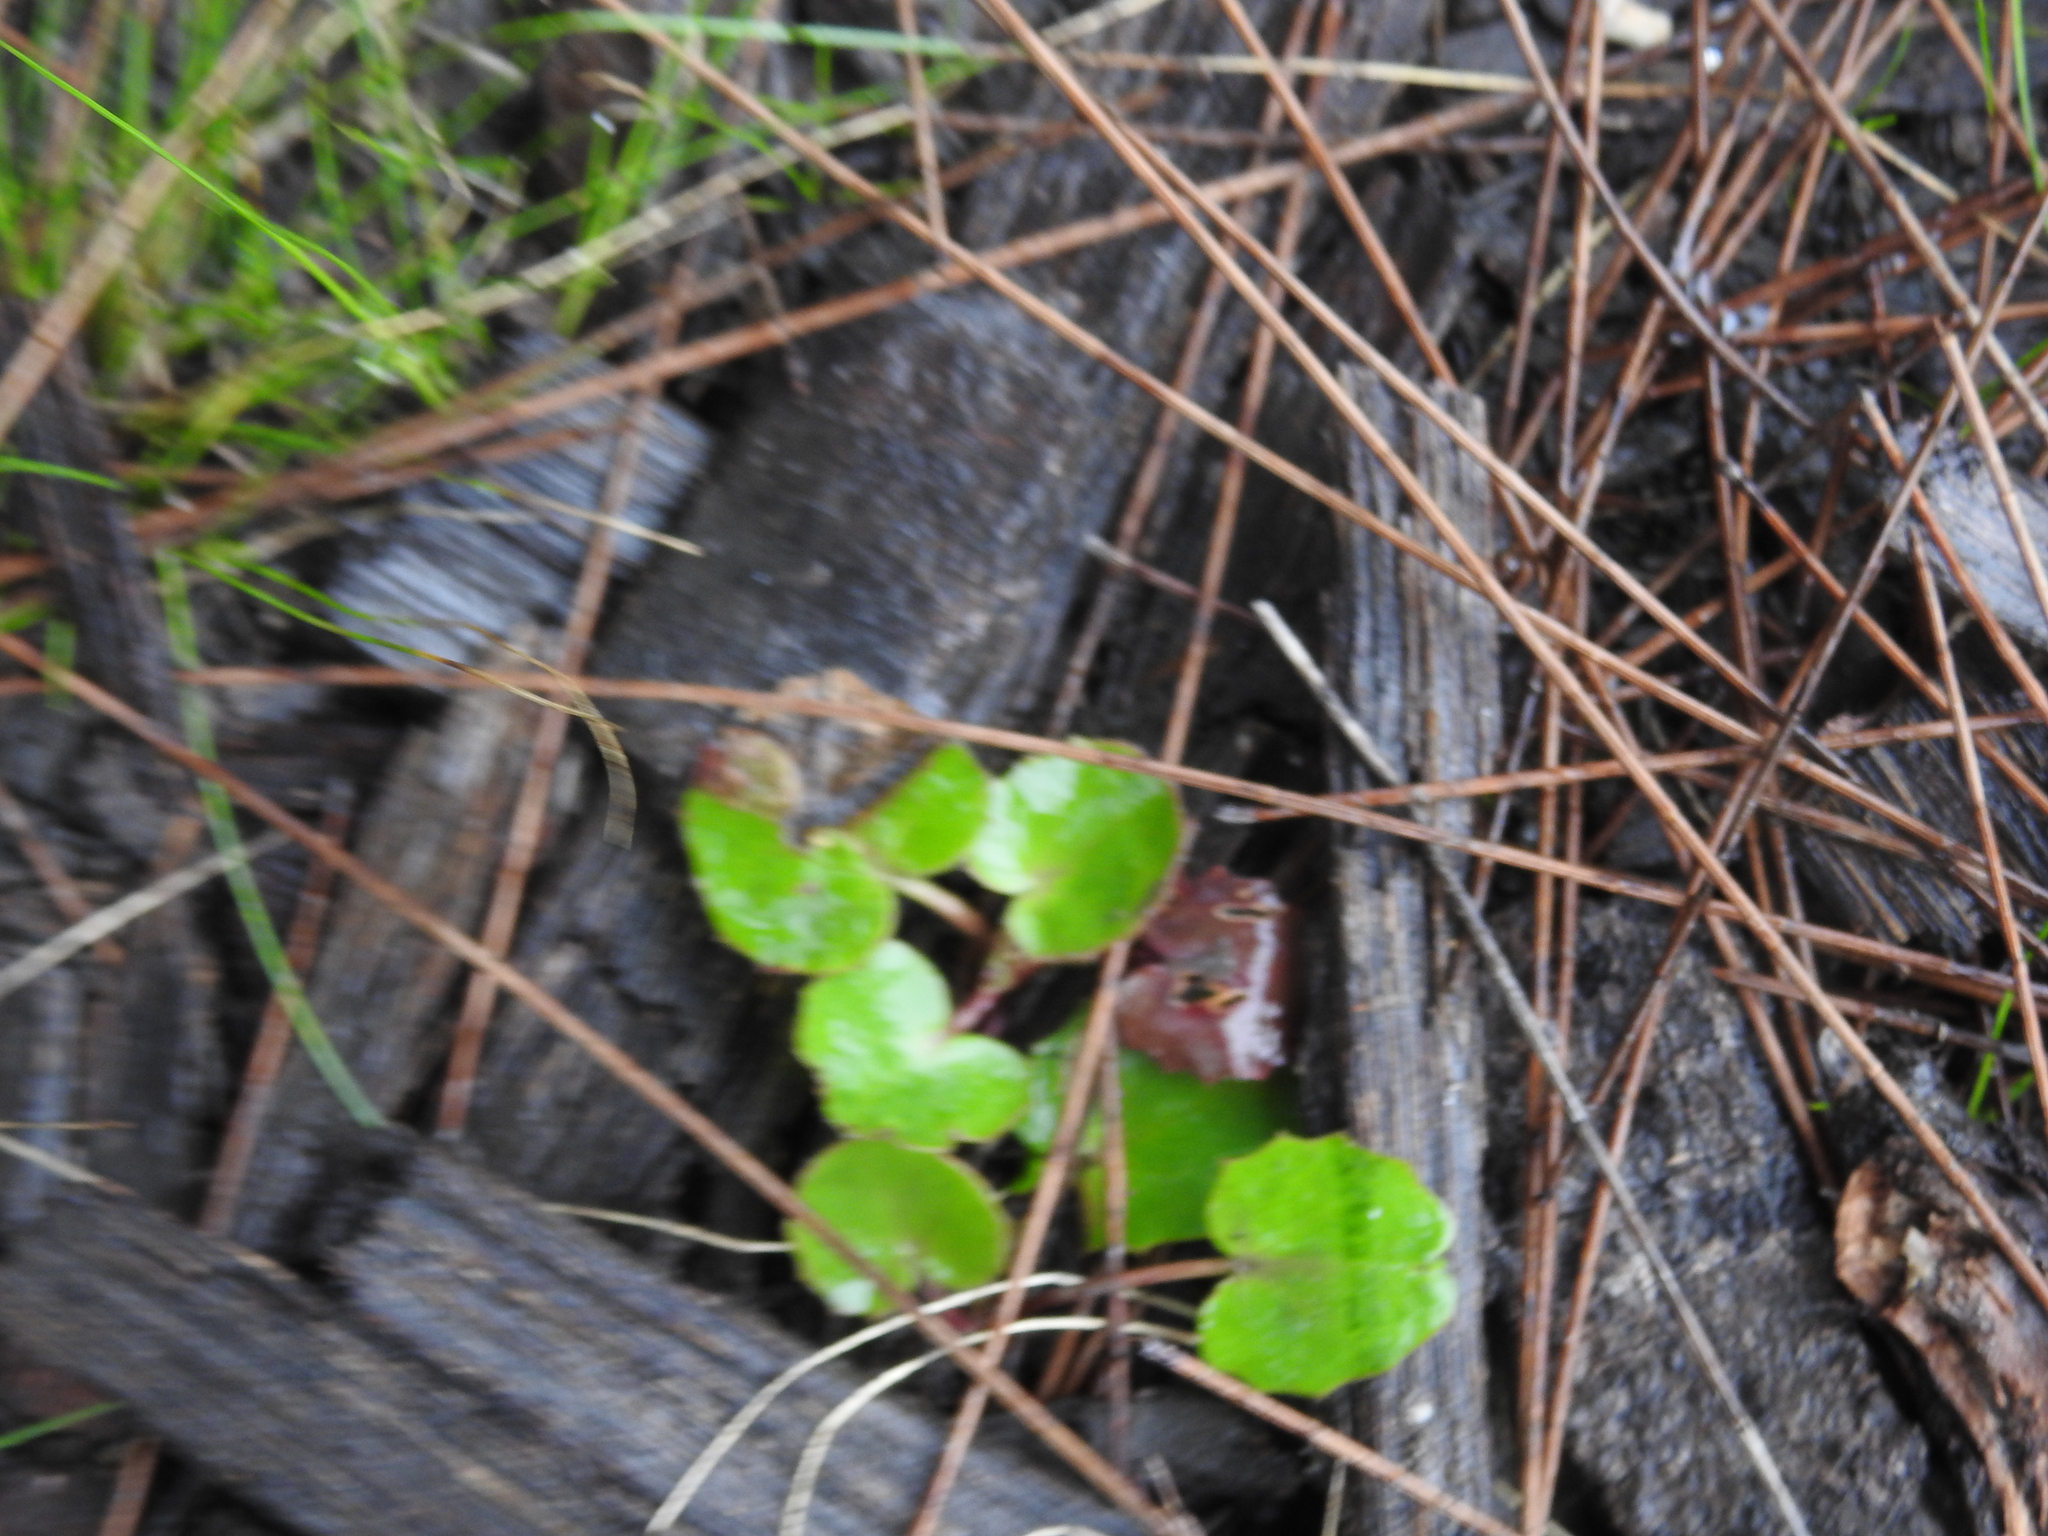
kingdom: Plantae
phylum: Tracheophyta
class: Magnoliopsida
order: Apiales
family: Apiaceae
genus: Centella
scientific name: Centella erecta
